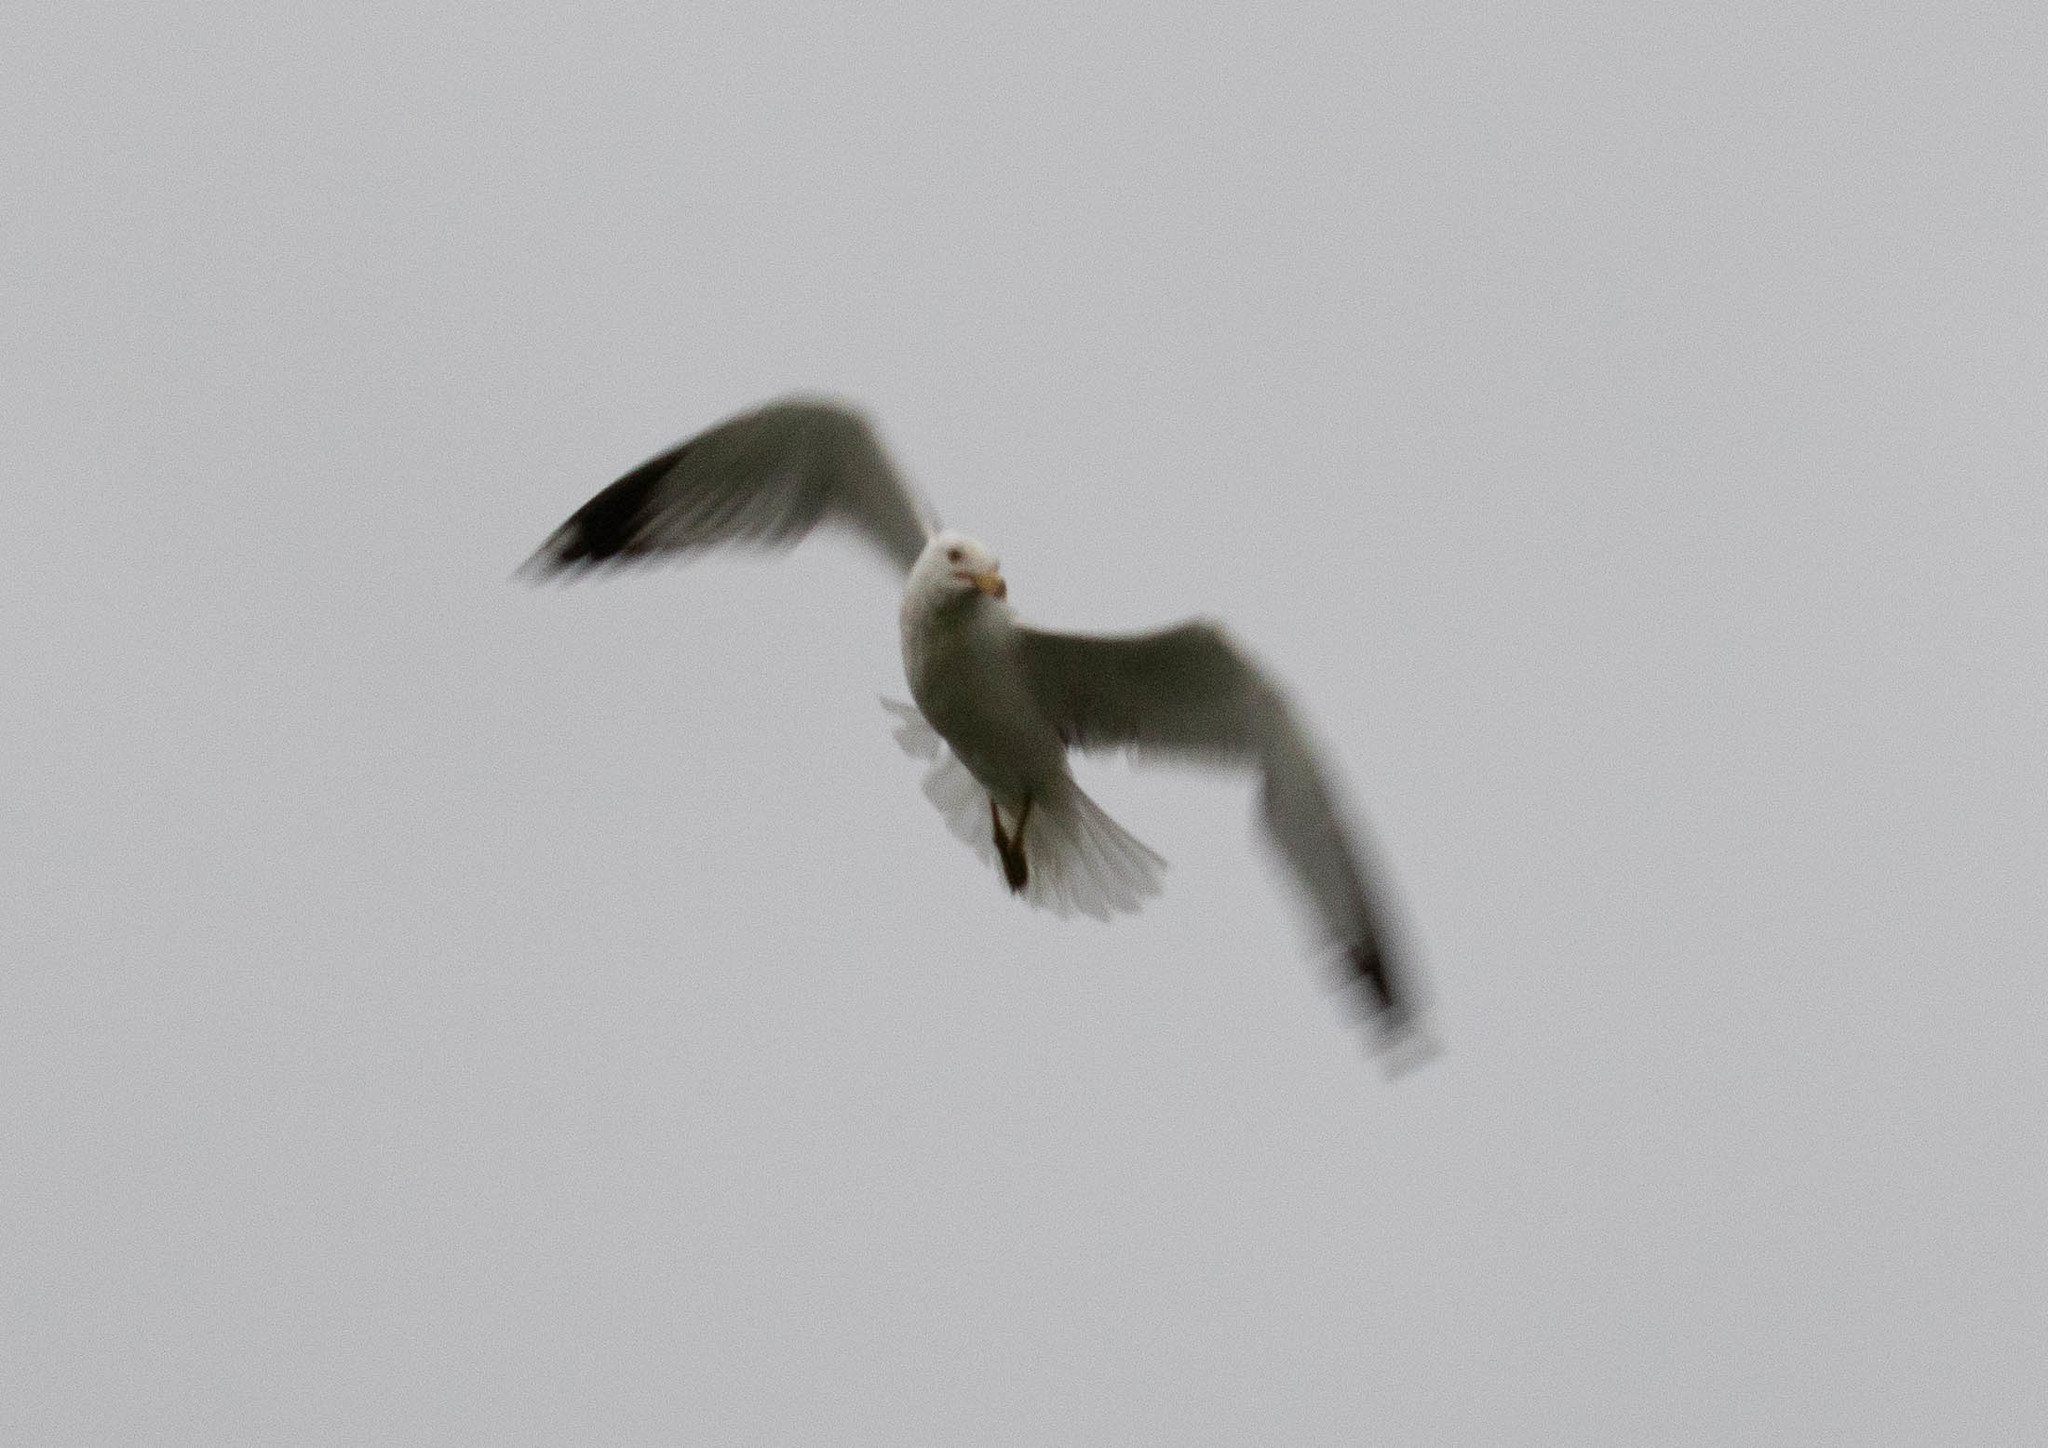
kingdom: Animalia
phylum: Chordata
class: Aves
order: Charadriiformes
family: Laridae
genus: Larus
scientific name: Larus delawarensis
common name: Ring-billed gull
